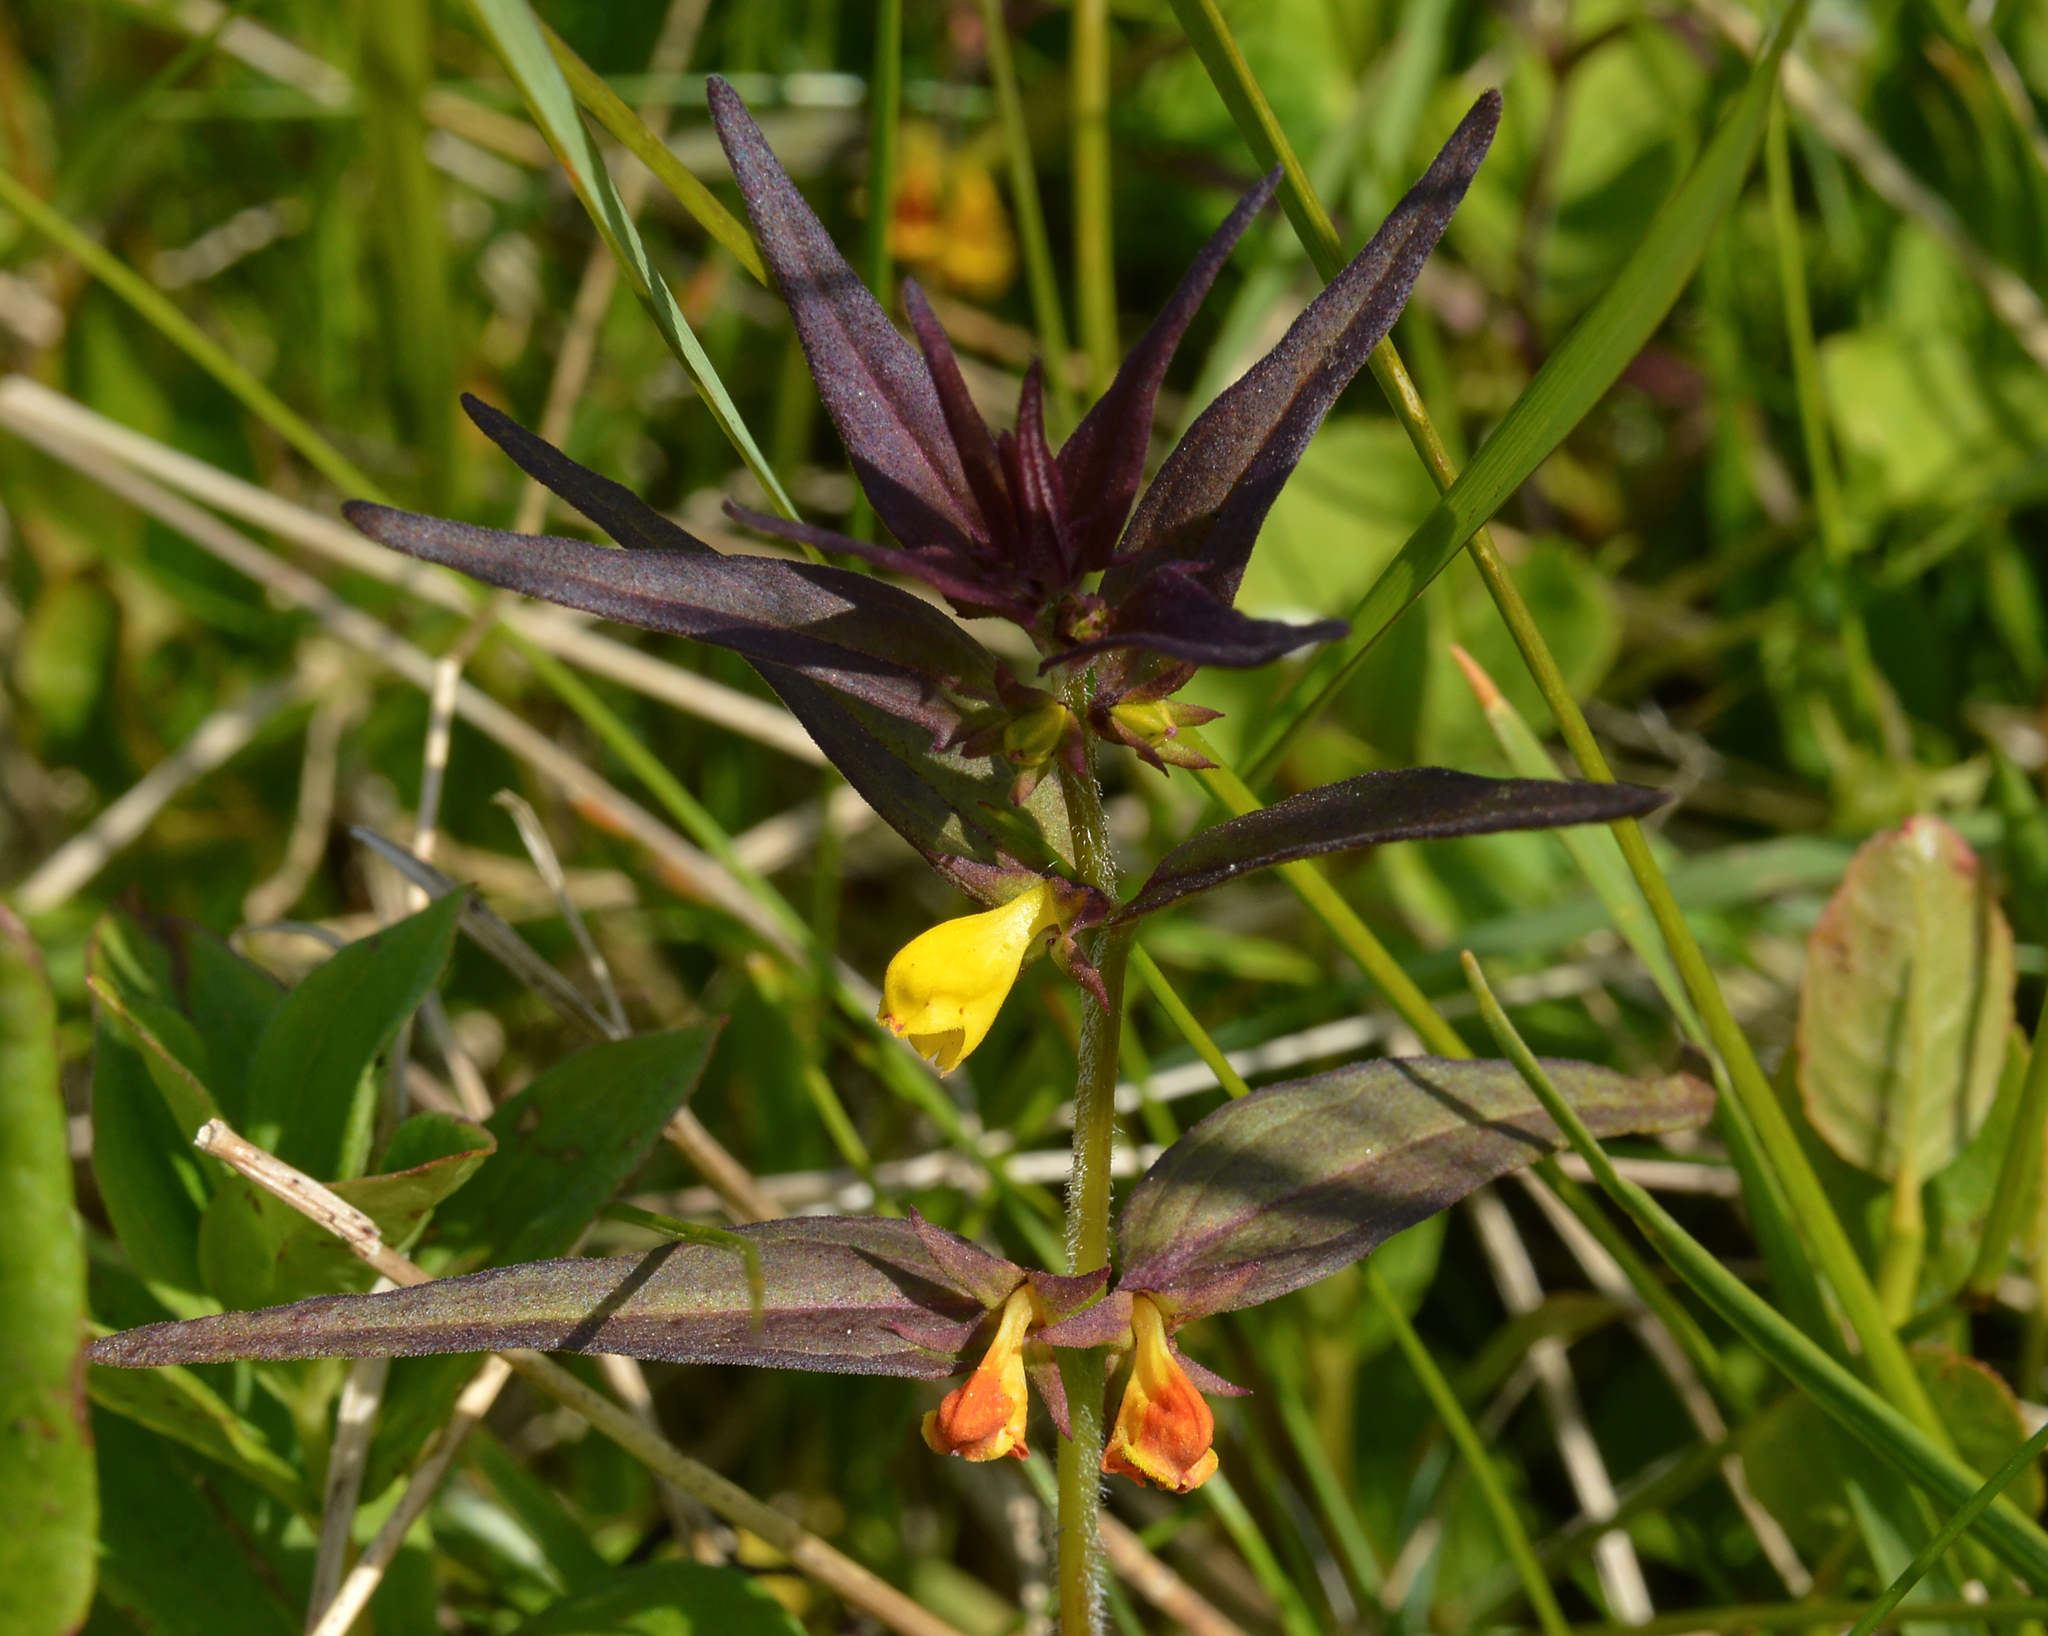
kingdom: Plantae
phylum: Tracheophyta
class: Magnoliopsida
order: Lamiales
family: Orobanchaceae
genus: Melampyrum
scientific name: Melampyrum sylvaticum
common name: Small cow-wheat
